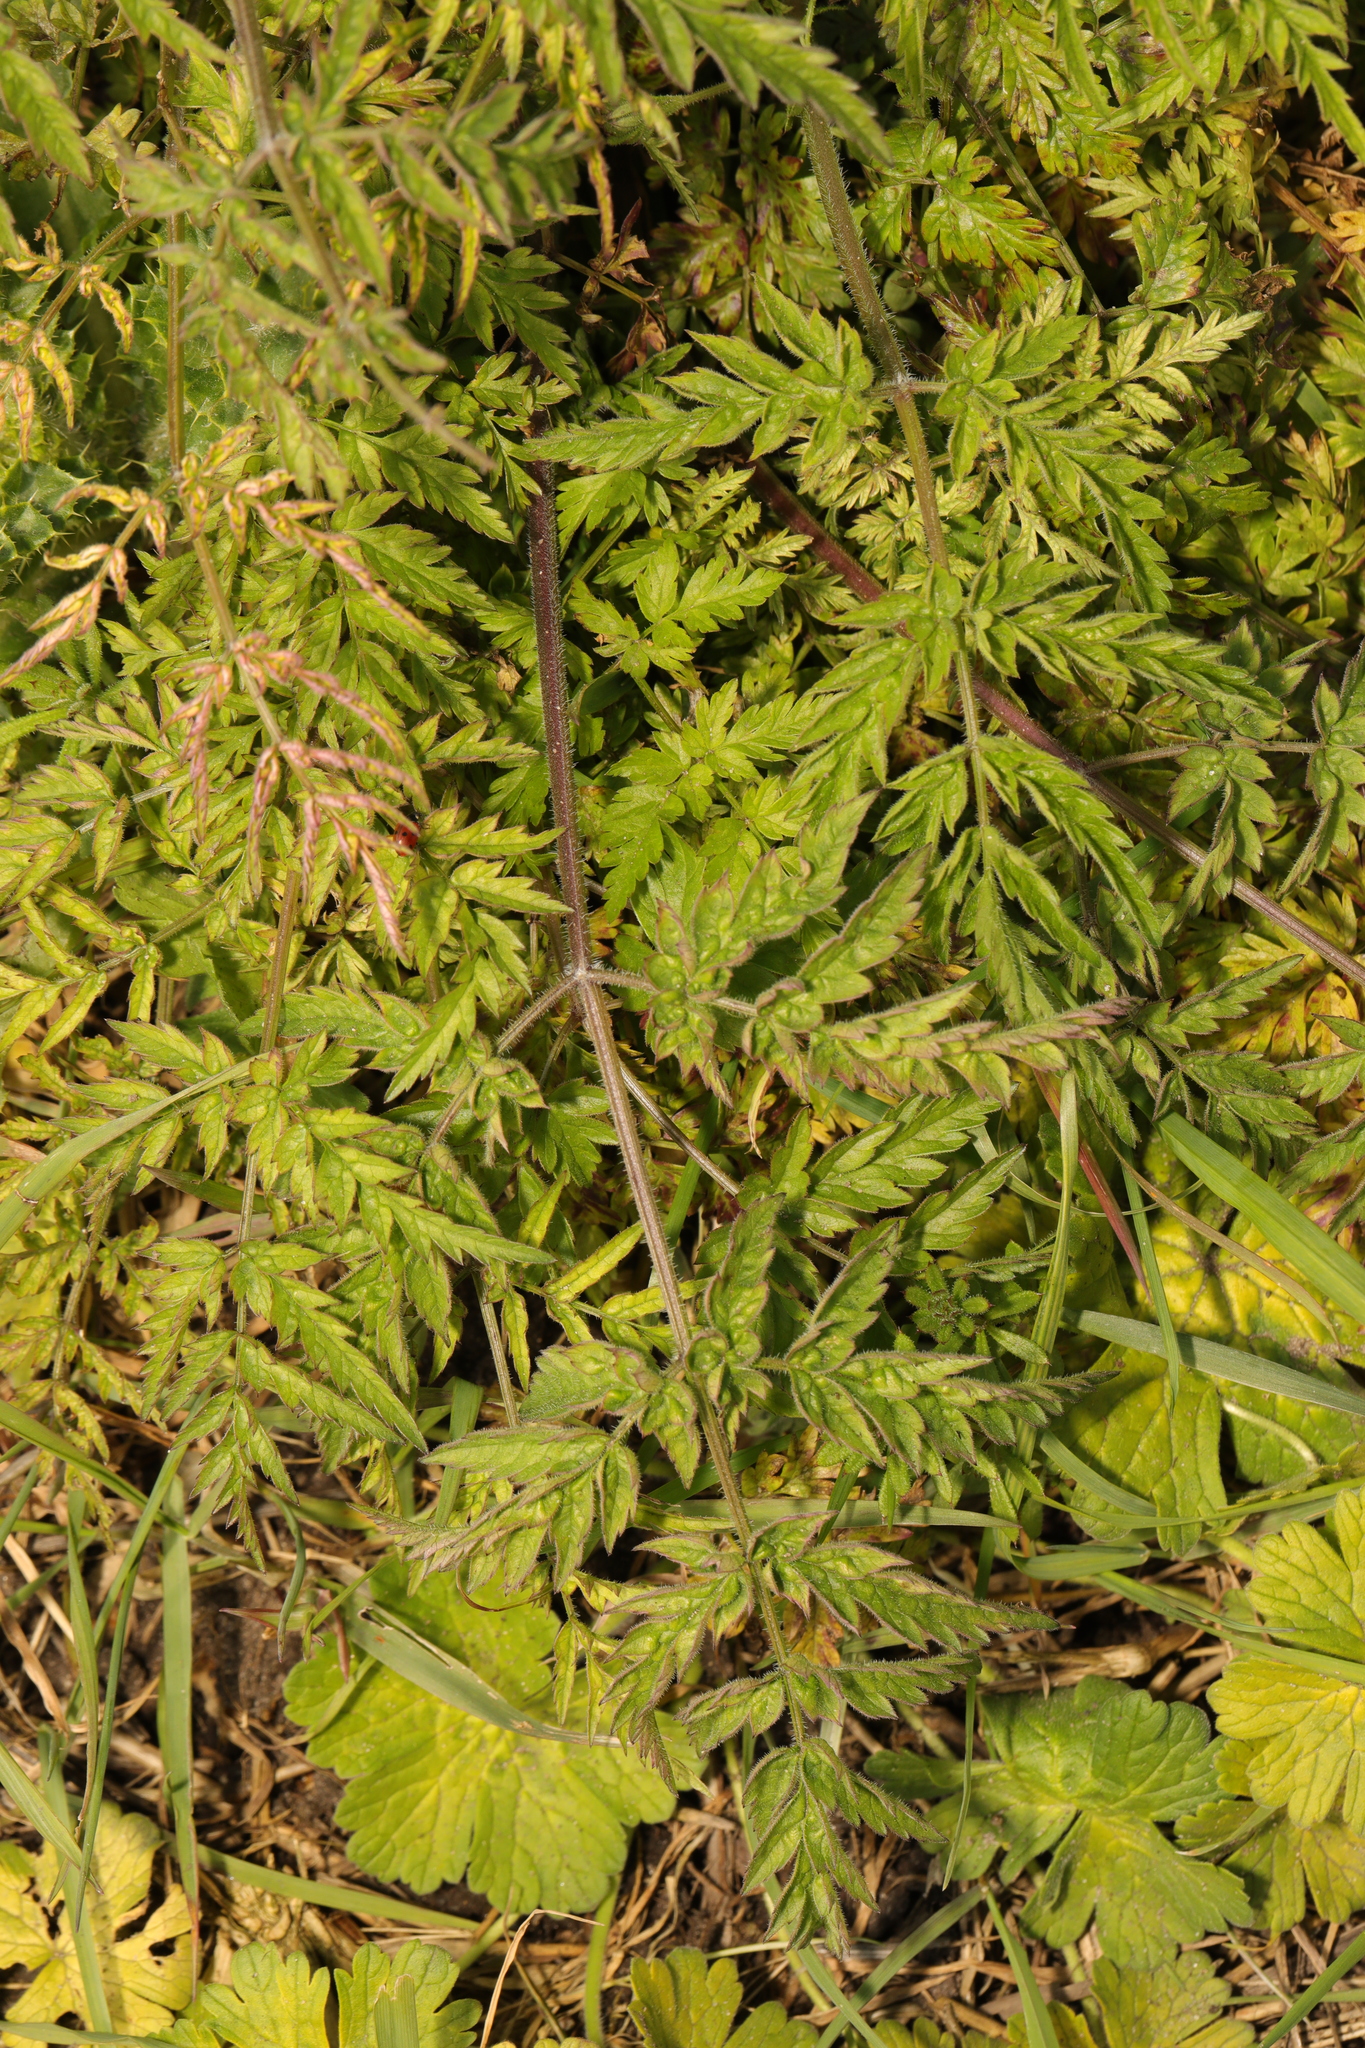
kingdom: Plantae
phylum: Tracheophyta
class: Magnoliopsida
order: Apiales
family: Apiaceae
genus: Anthriscus
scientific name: Anthriscus sylvestris
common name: Cow parsley
